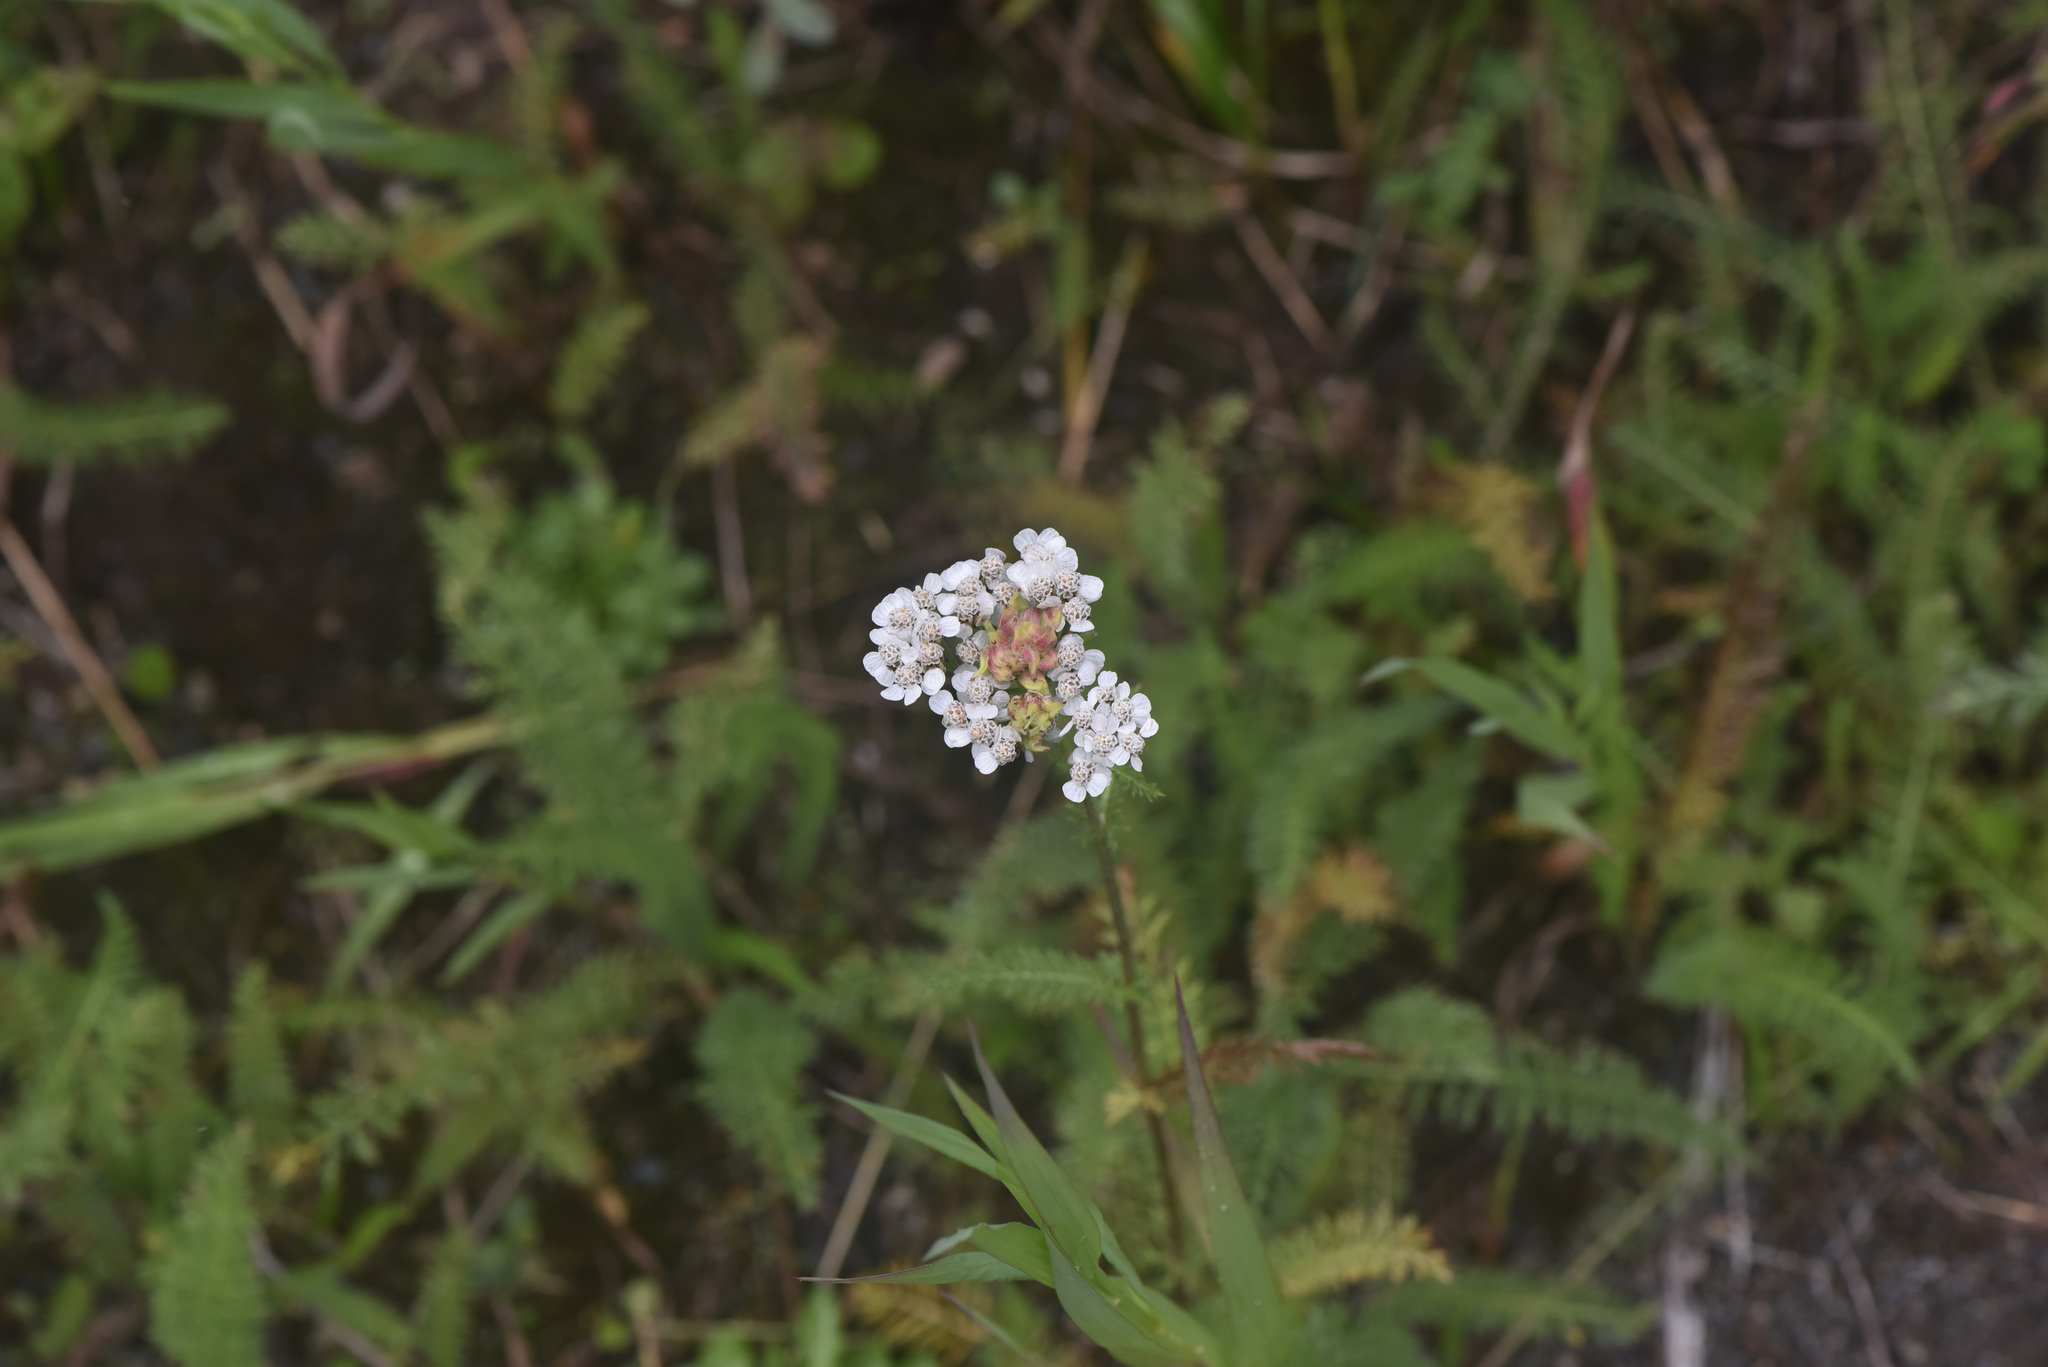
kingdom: Plantae
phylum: Tracheophyta
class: Magnoliopsida
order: Asterales
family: Asteraceae
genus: Achillea
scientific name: Achillea millefolium
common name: Yarrow
